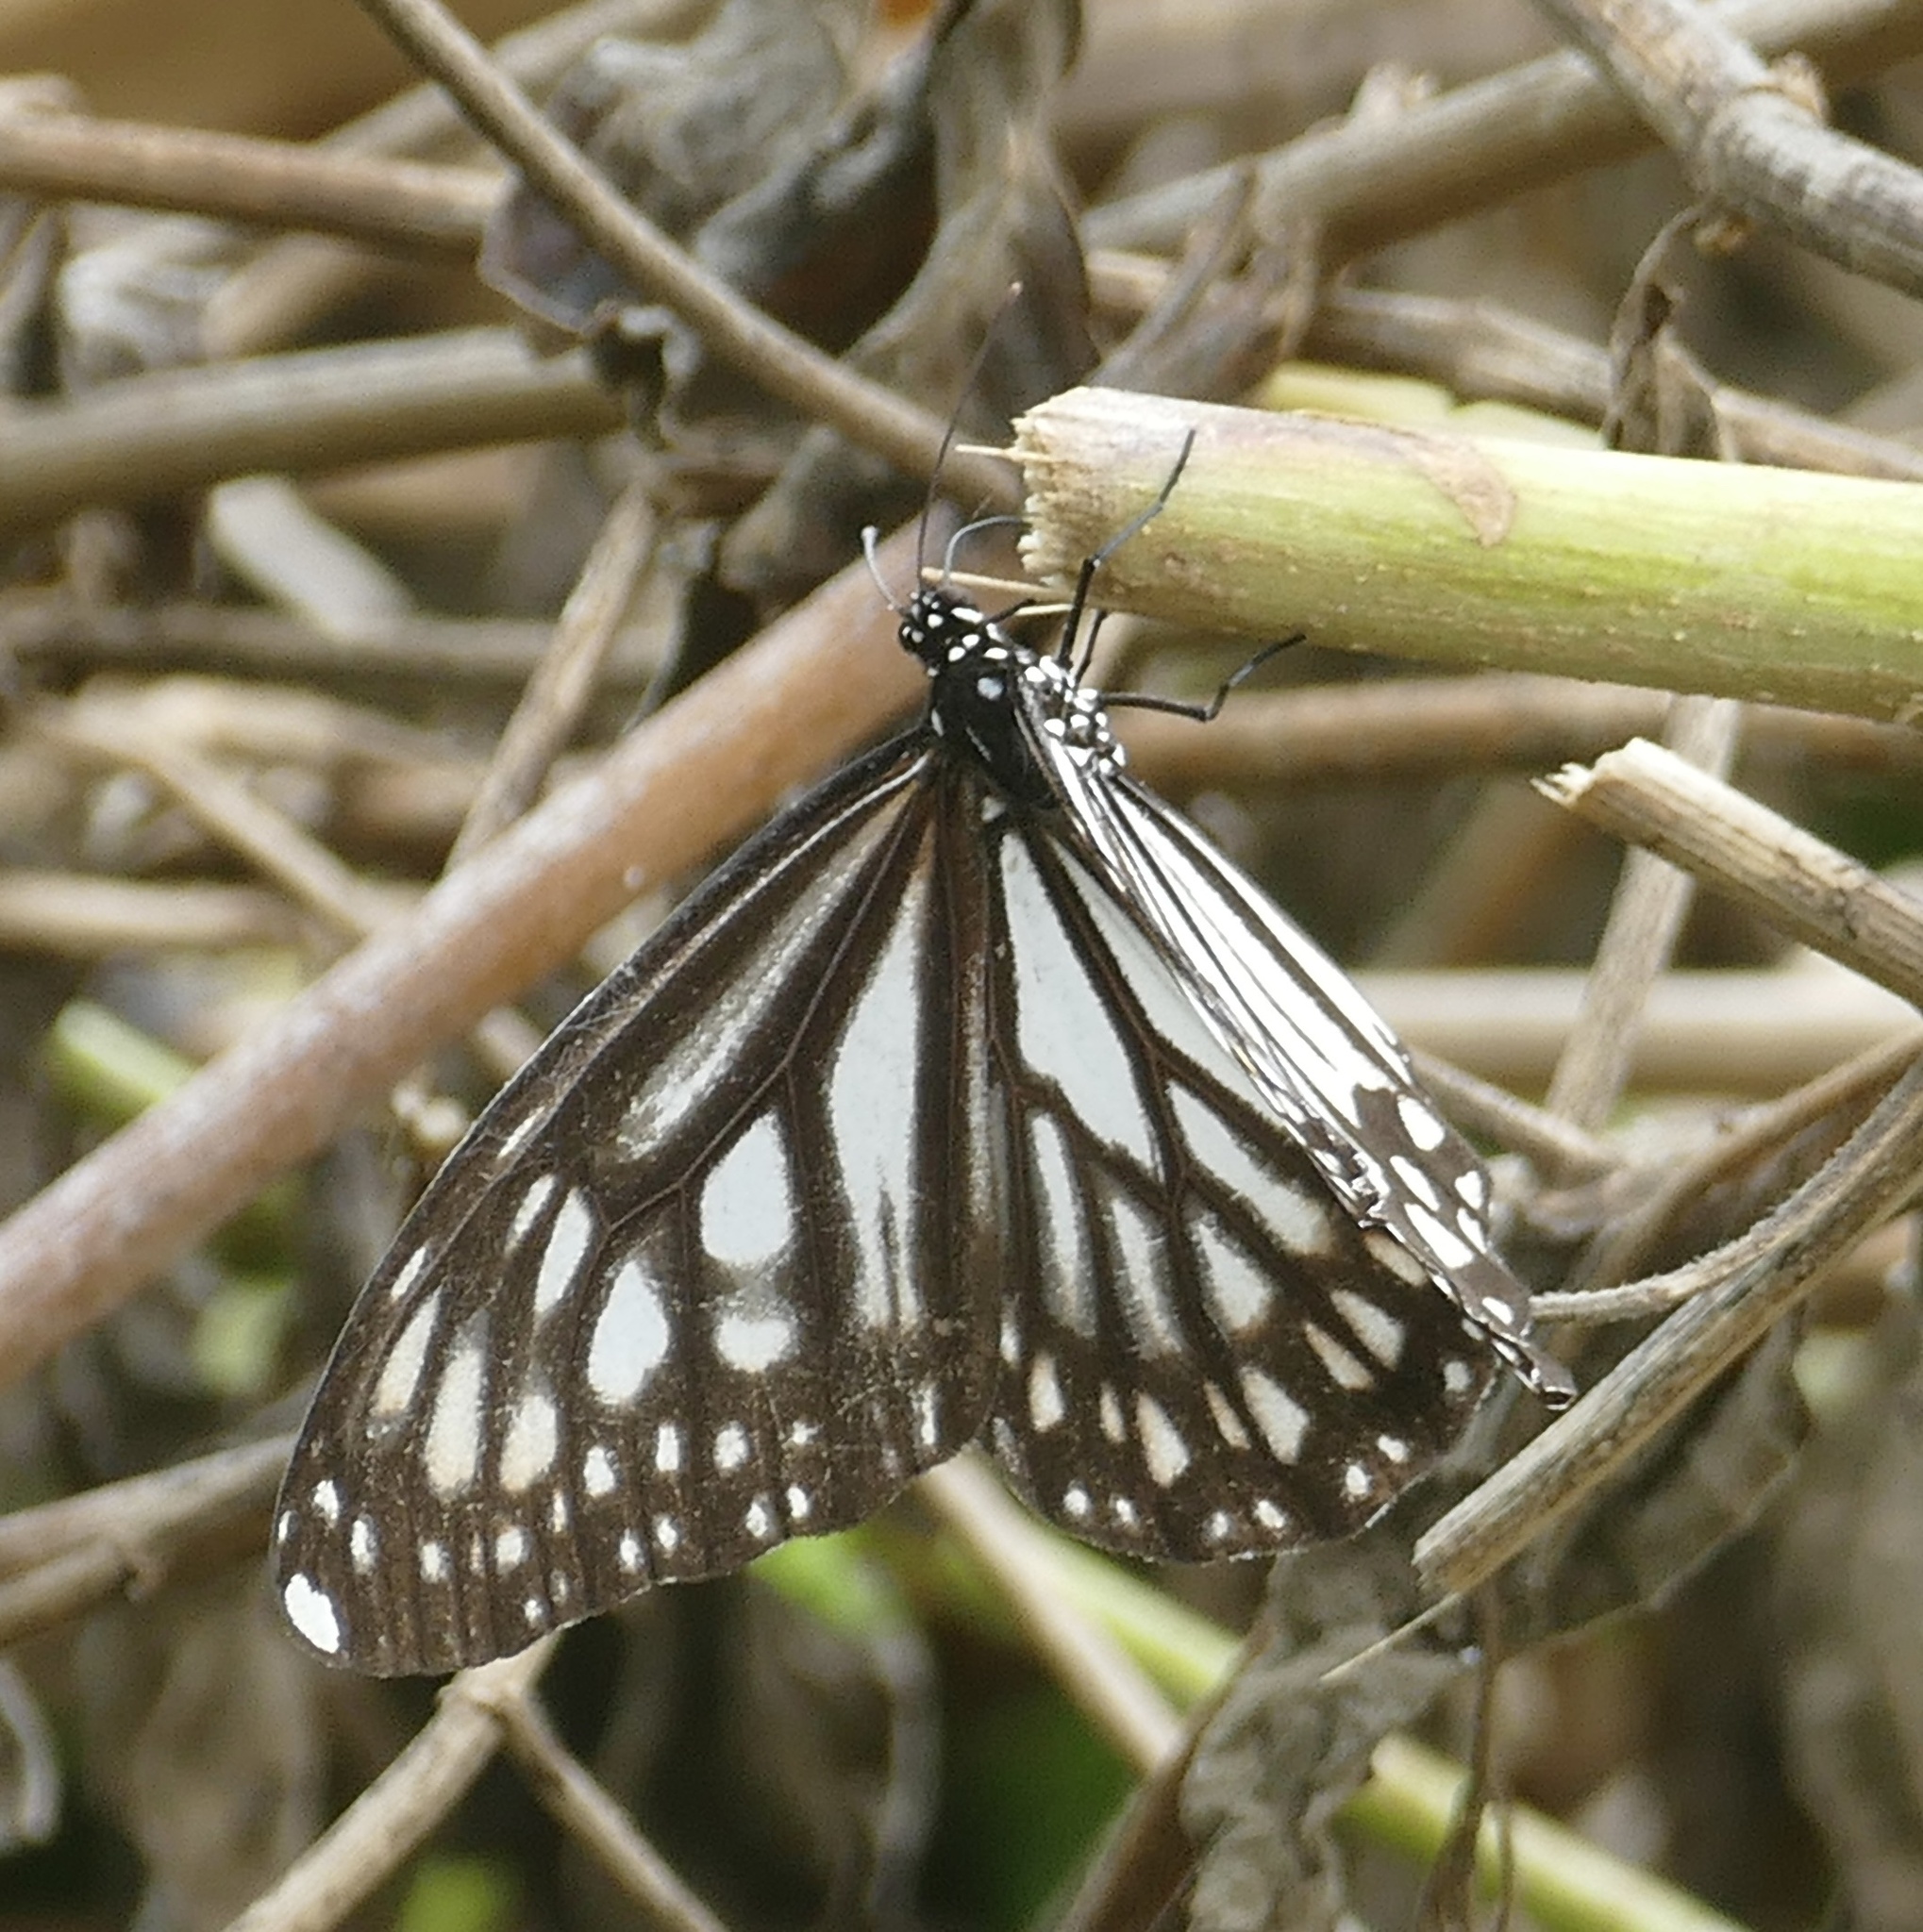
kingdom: Animalia
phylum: Arthropoda
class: Insecta
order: Lepidoptera
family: Nymphalidae
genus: Danaus
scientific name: Danaus ismare
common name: Ismare tiger butterfly
